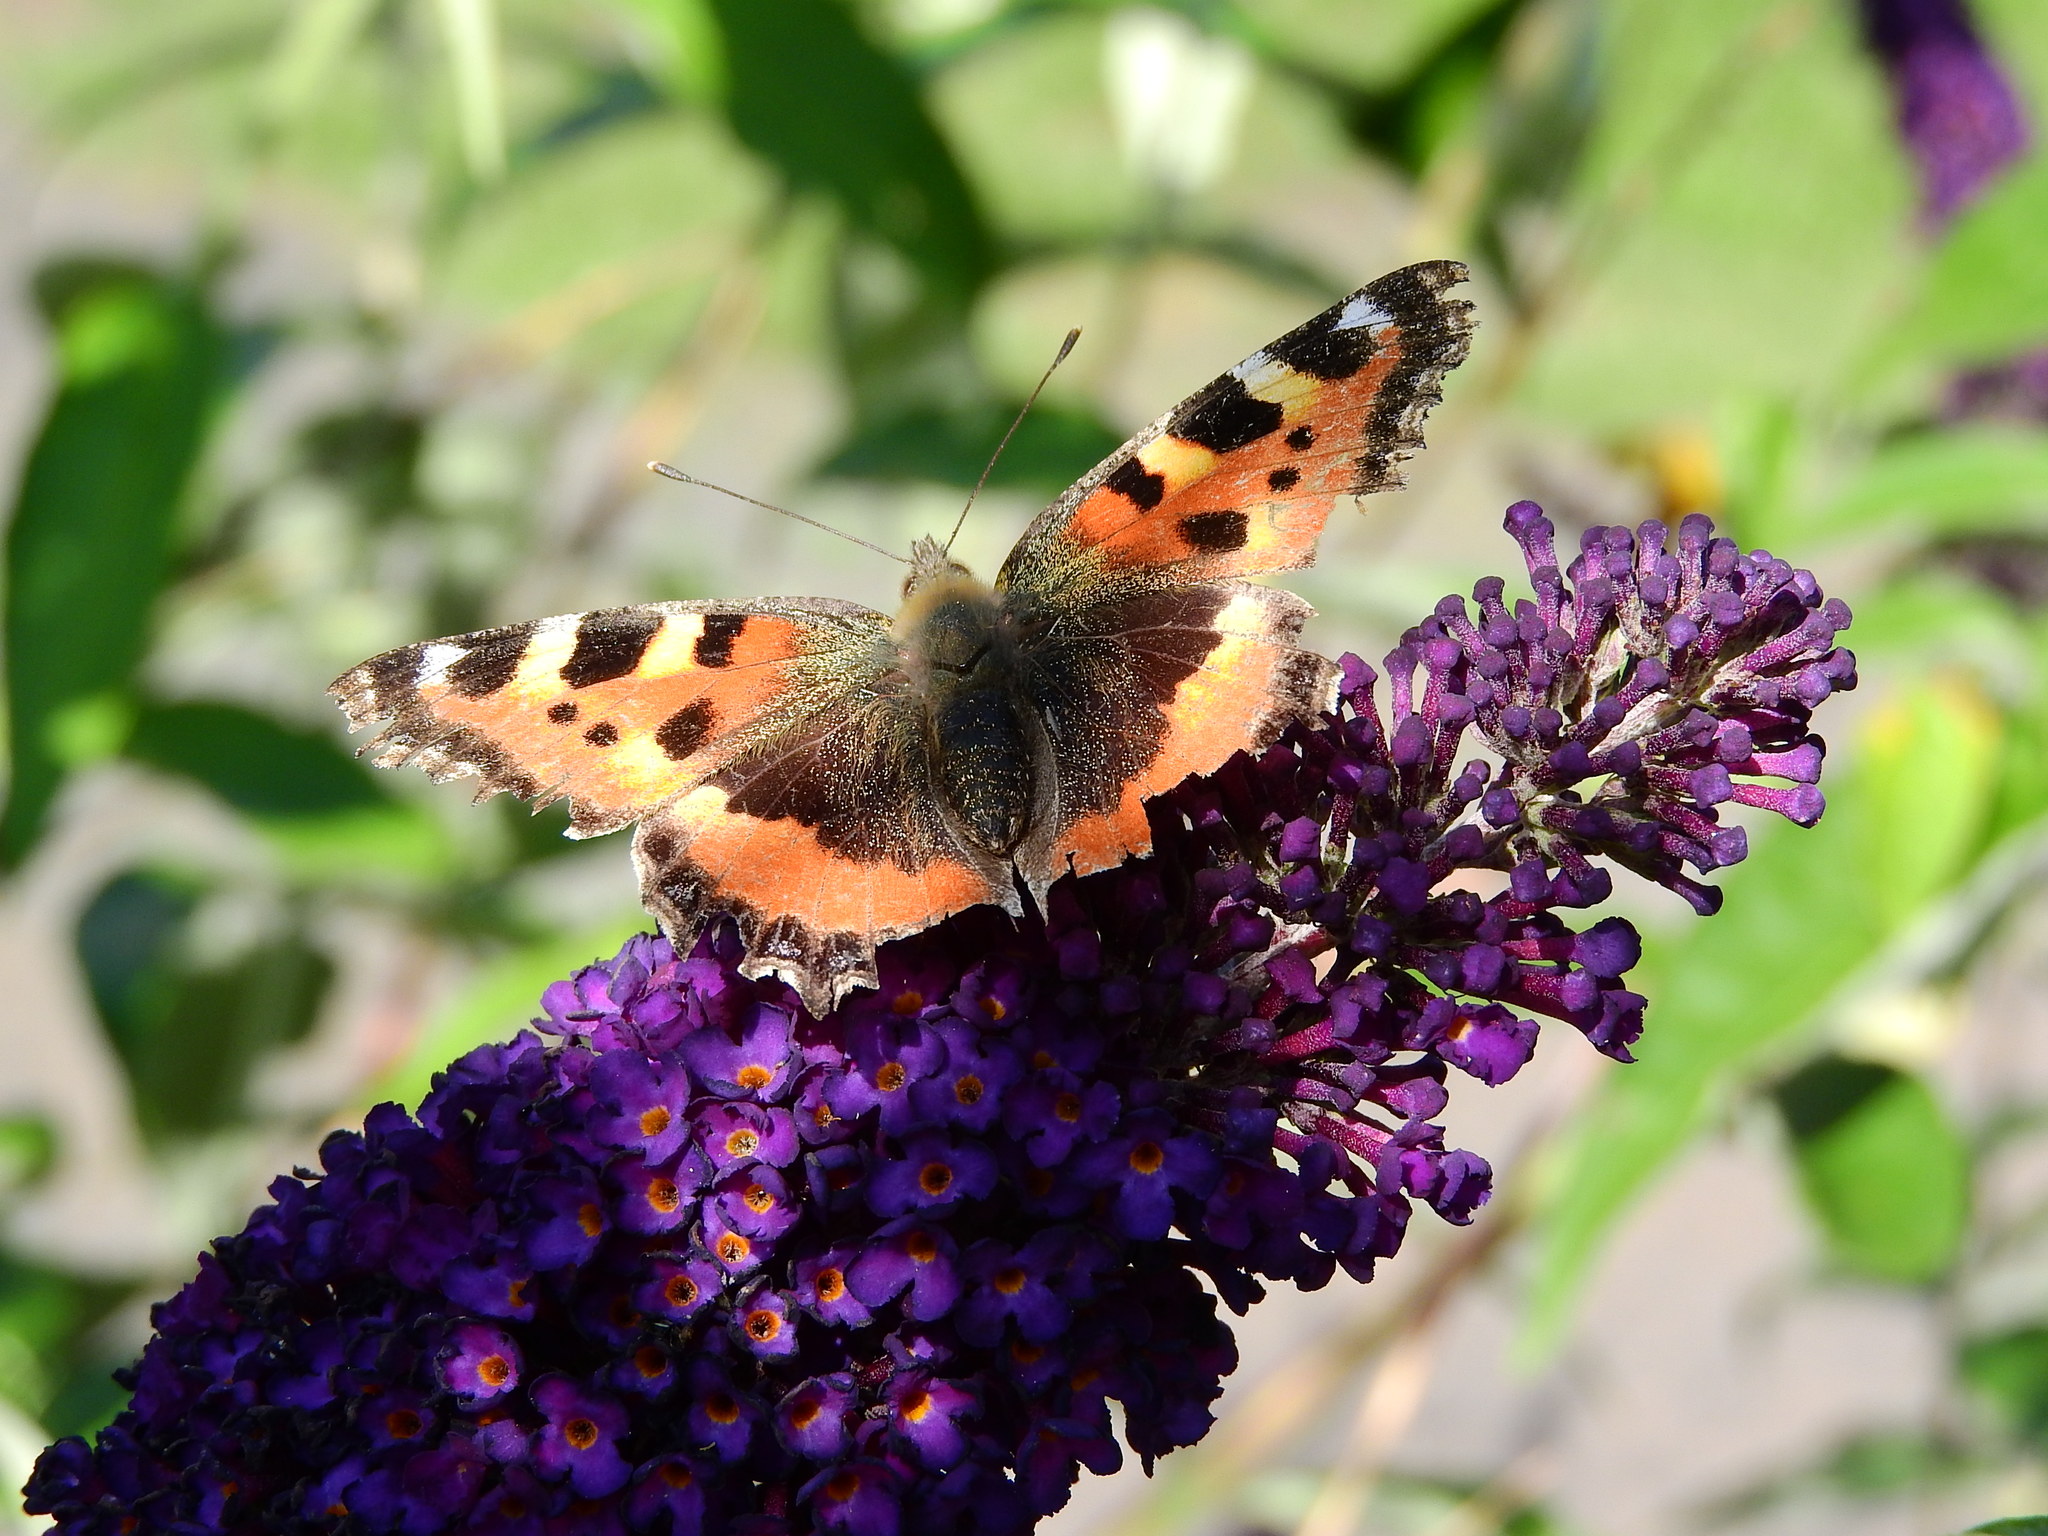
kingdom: Animalia
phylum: Arthropoda
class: Insecta
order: Lepidoptera
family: Nymphalidae
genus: Aglais
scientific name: Aglais urticae
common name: Small tortoiseshell
